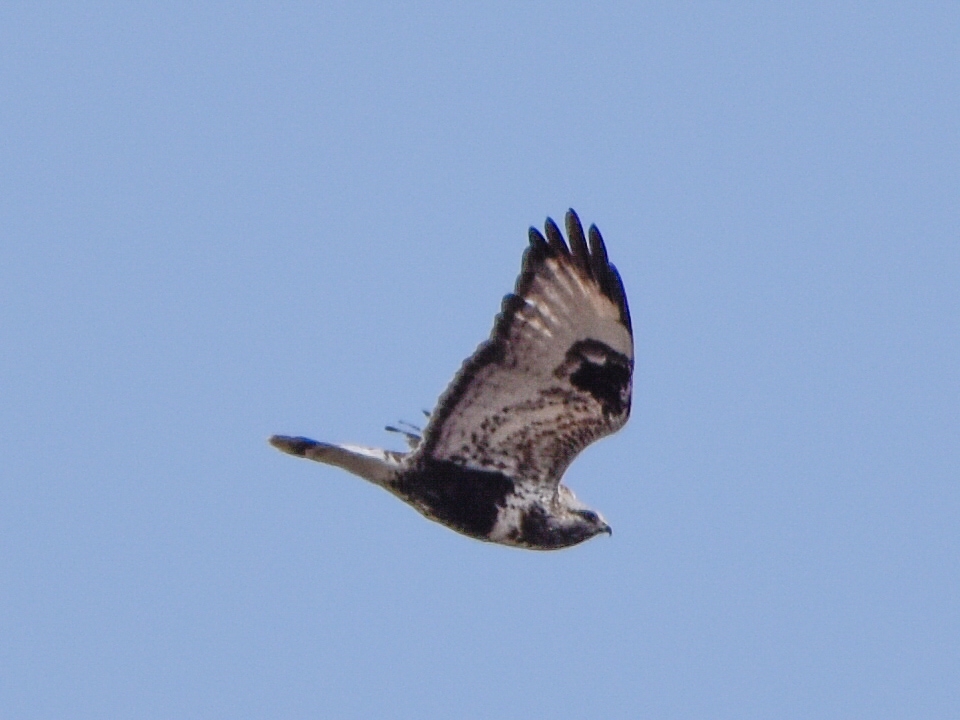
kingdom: Animalia
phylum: Chordata
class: Aves
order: Accipitriformes
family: Accipitridae
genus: Buteo
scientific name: Buteo lagopus
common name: Rough-legged buzzard
